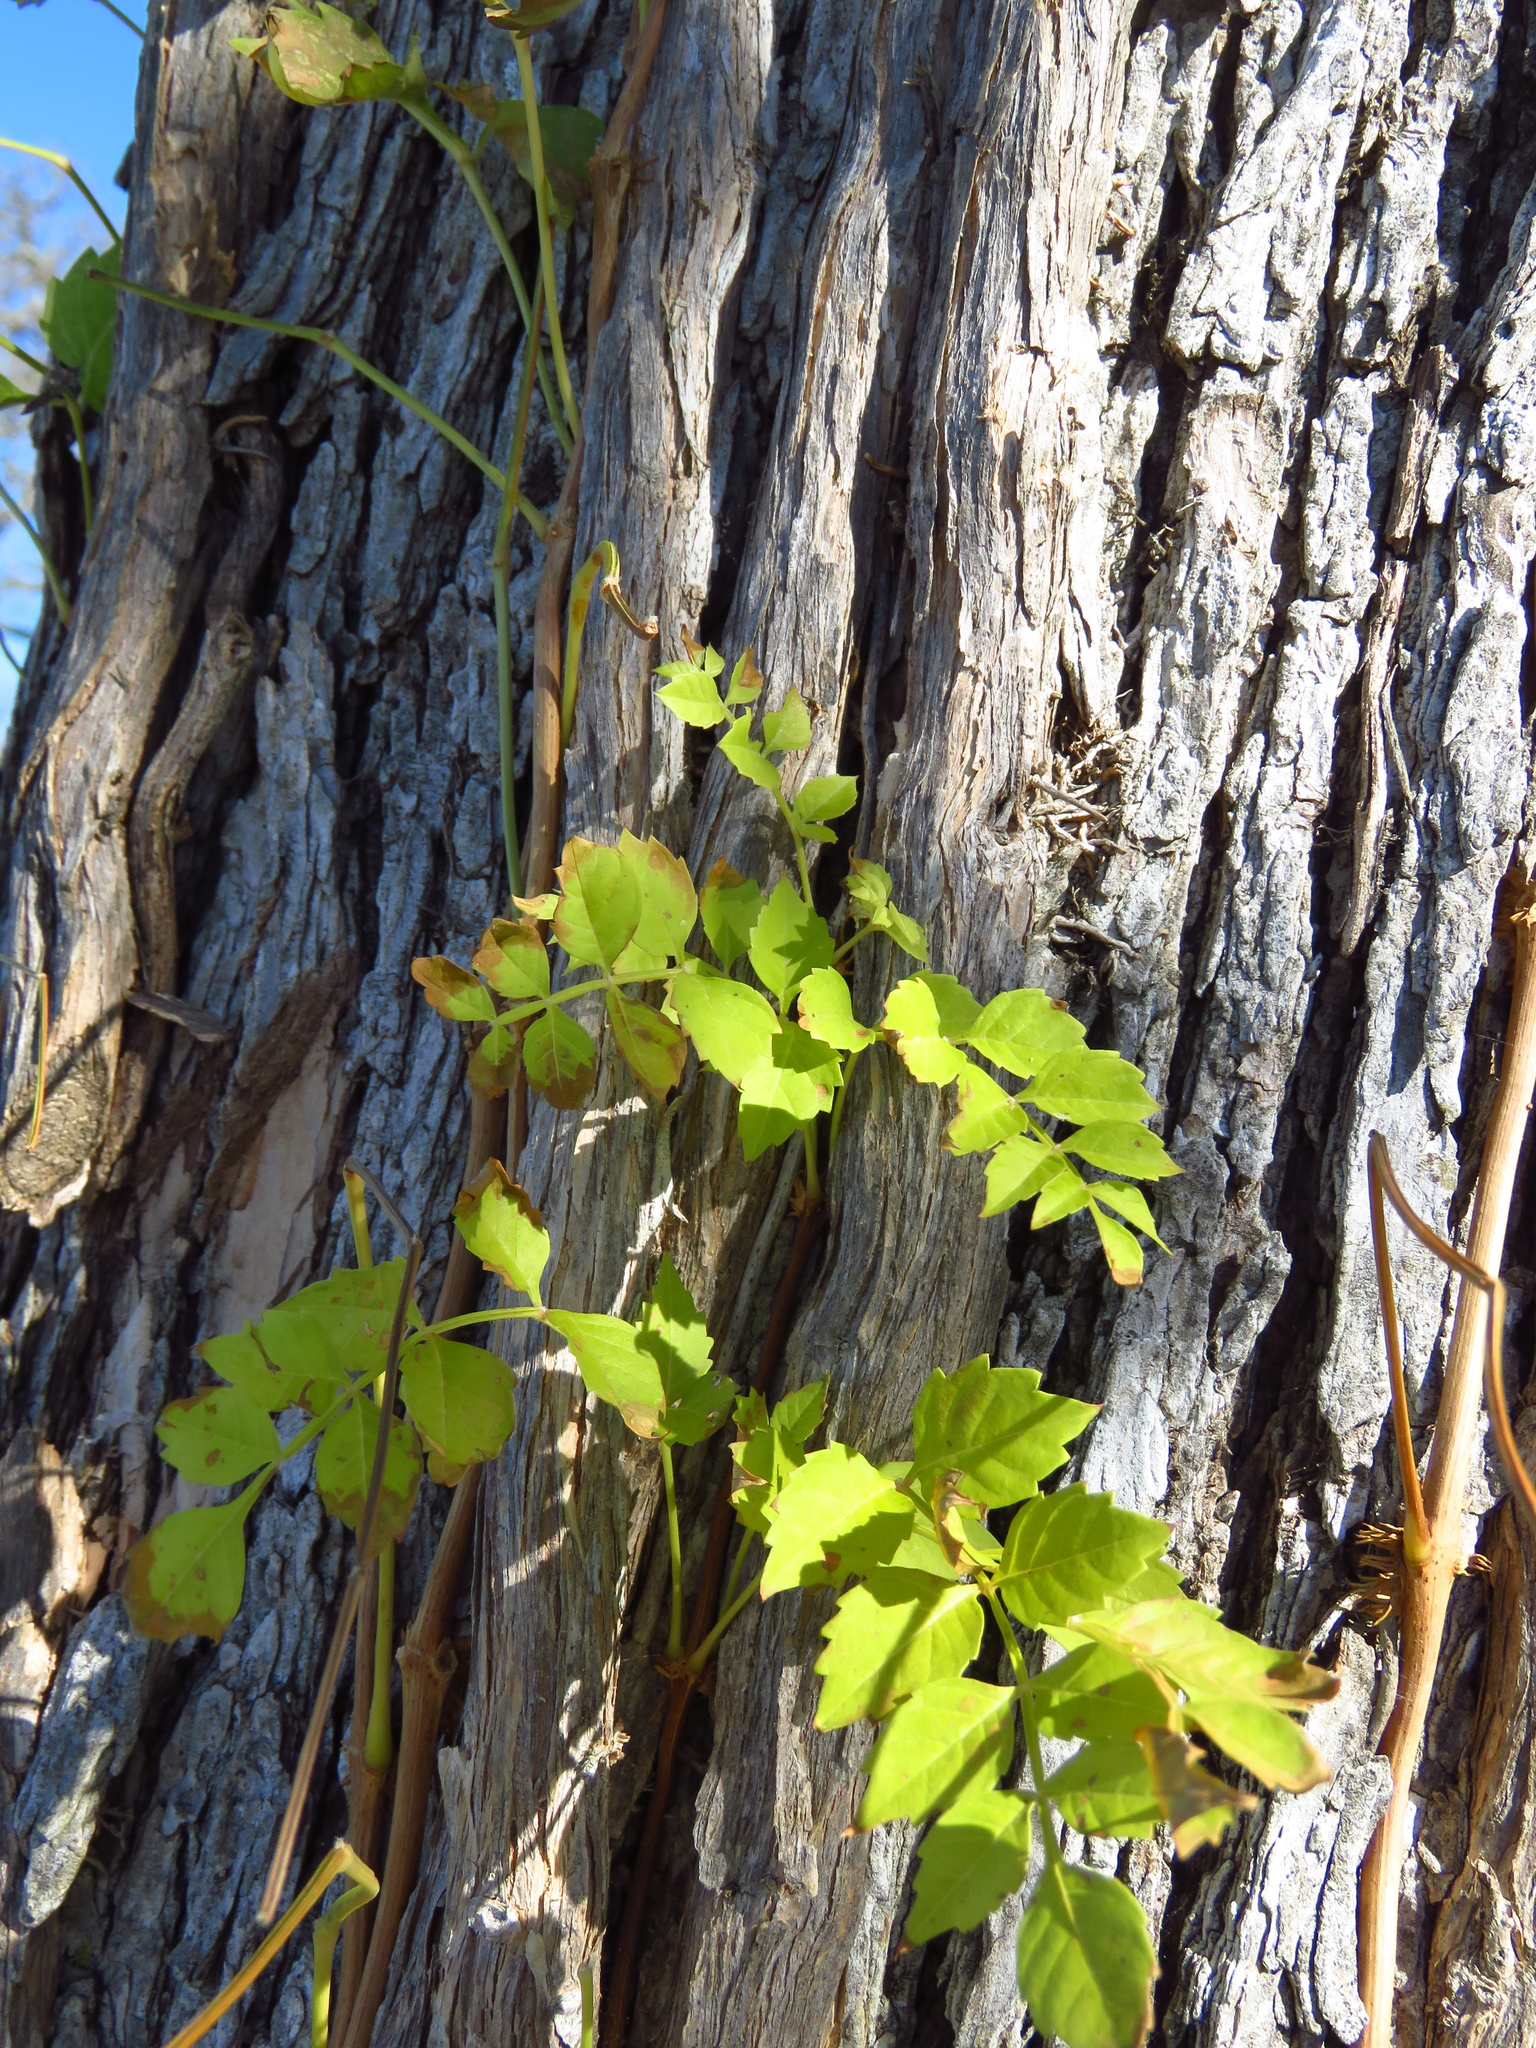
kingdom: Plantae
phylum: Tracheophyta
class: Magnoliopsida
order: Lamiales
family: Bignoniaceae
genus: Campsis
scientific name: Campsis radicans
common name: Trumpet-creeper
